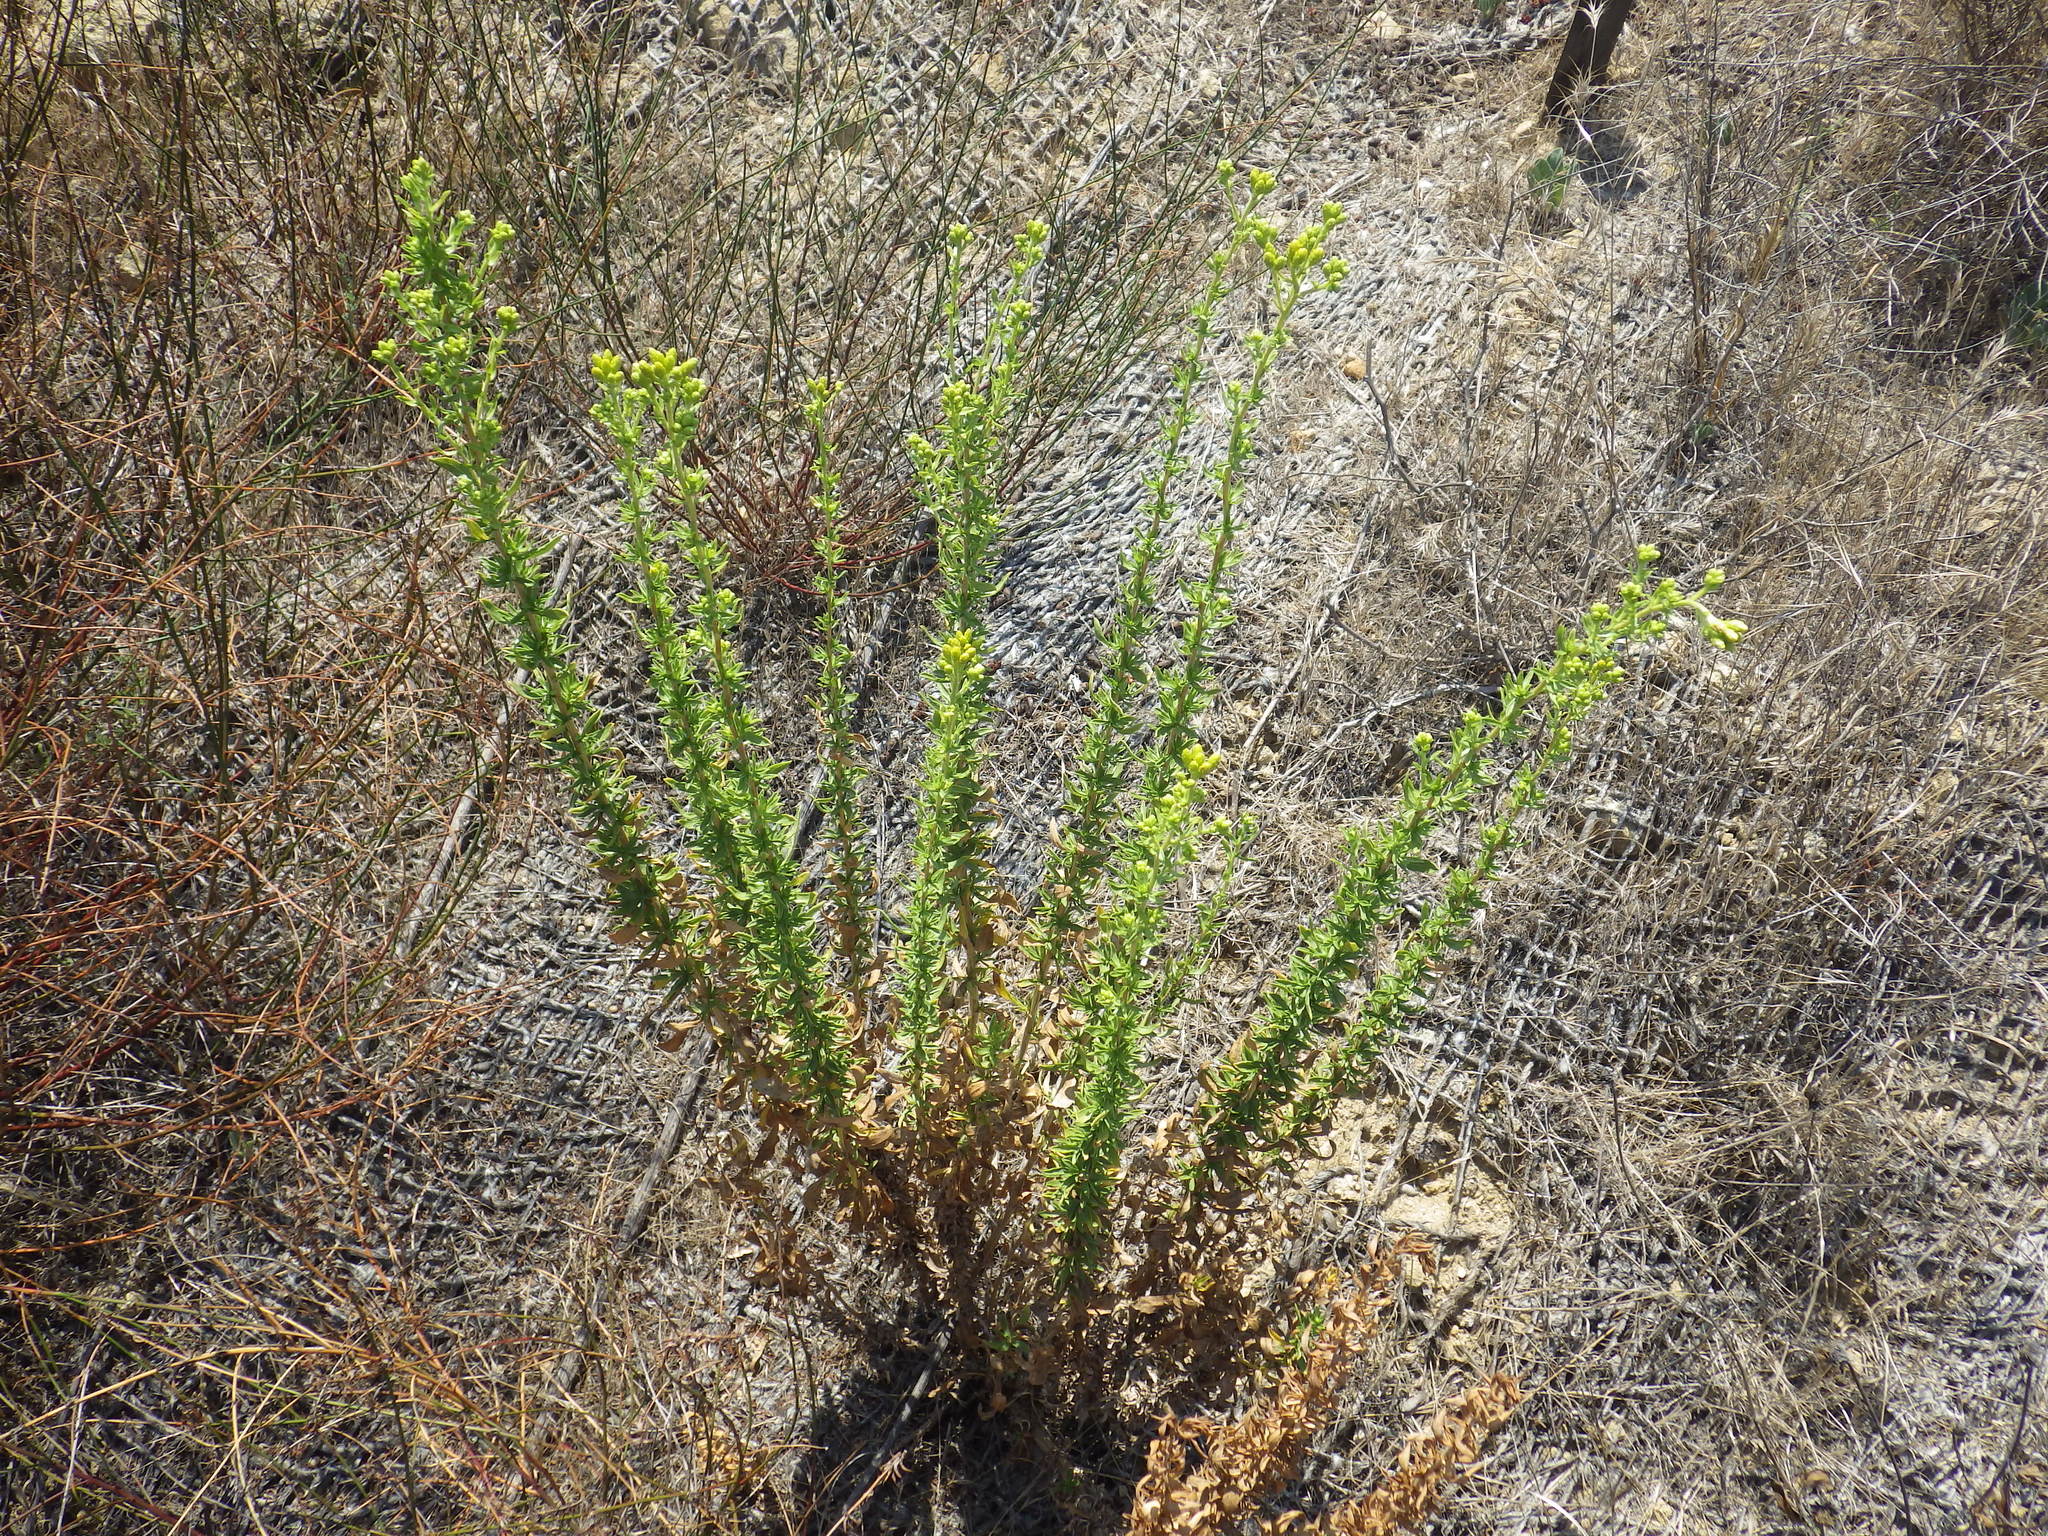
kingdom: Plantae
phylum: Tracheophyta
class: Magnoliopsida
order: Asterales
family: Asteraceae
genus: Isocoma
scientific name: Isocoma menziesii
